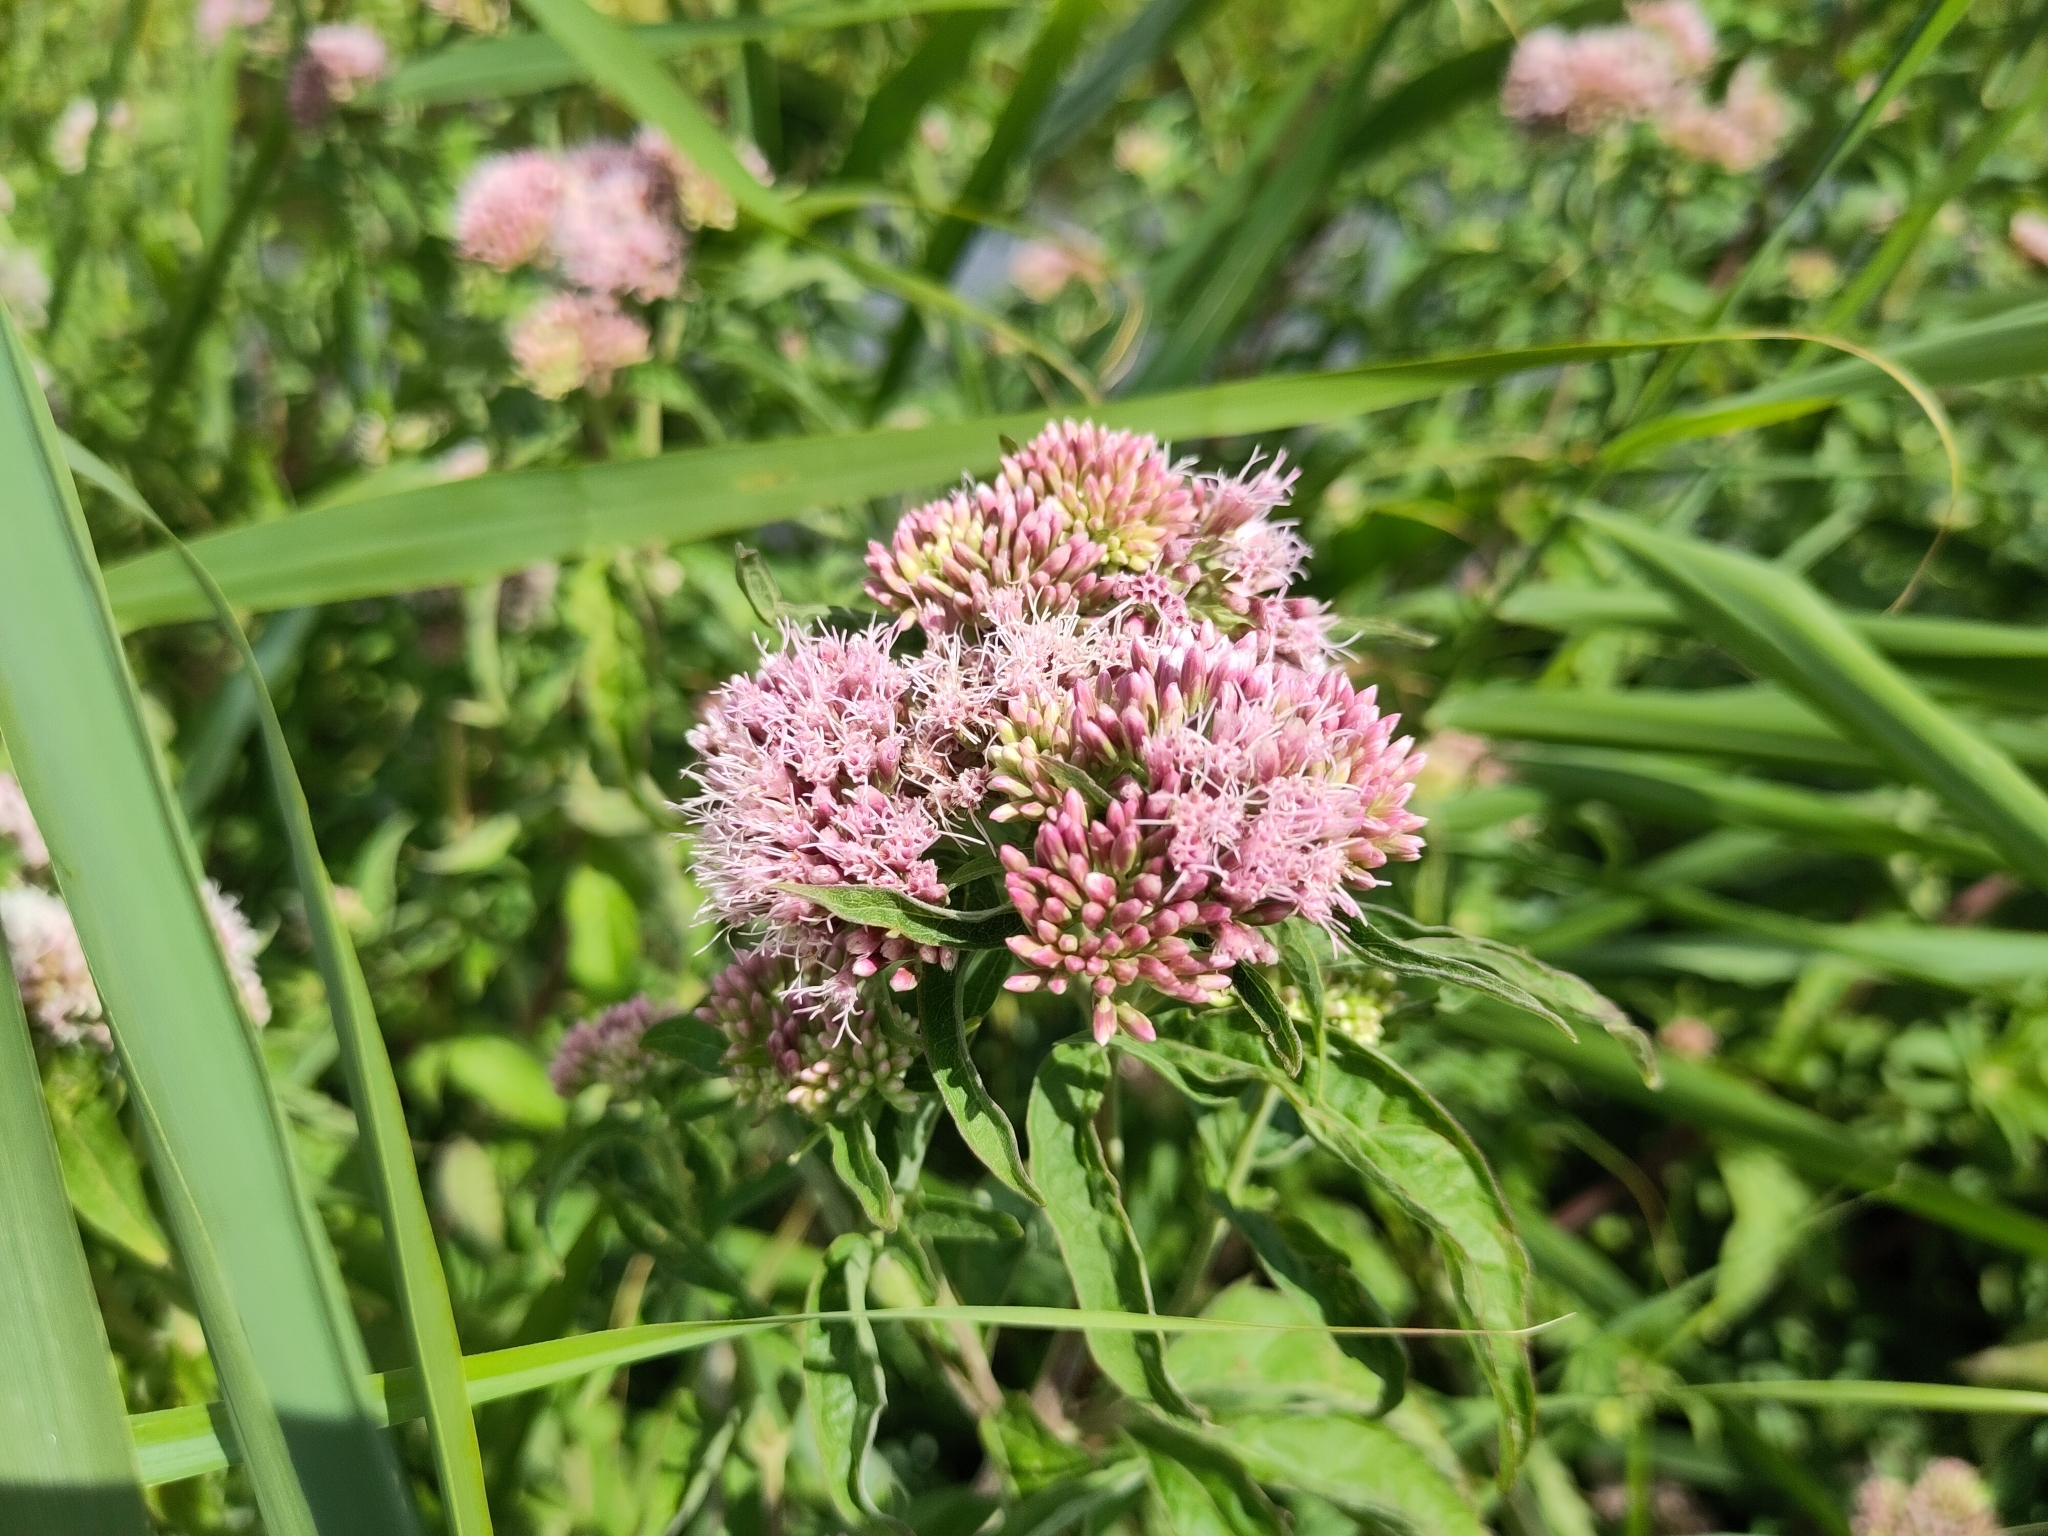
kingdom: Plantae
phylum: Tracheophyta
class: Magnoliopsida
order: Asterales
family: Asteraceae
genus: Eupatorium
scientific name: Eupatorium cannabinum
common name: Hemp-agrimony
